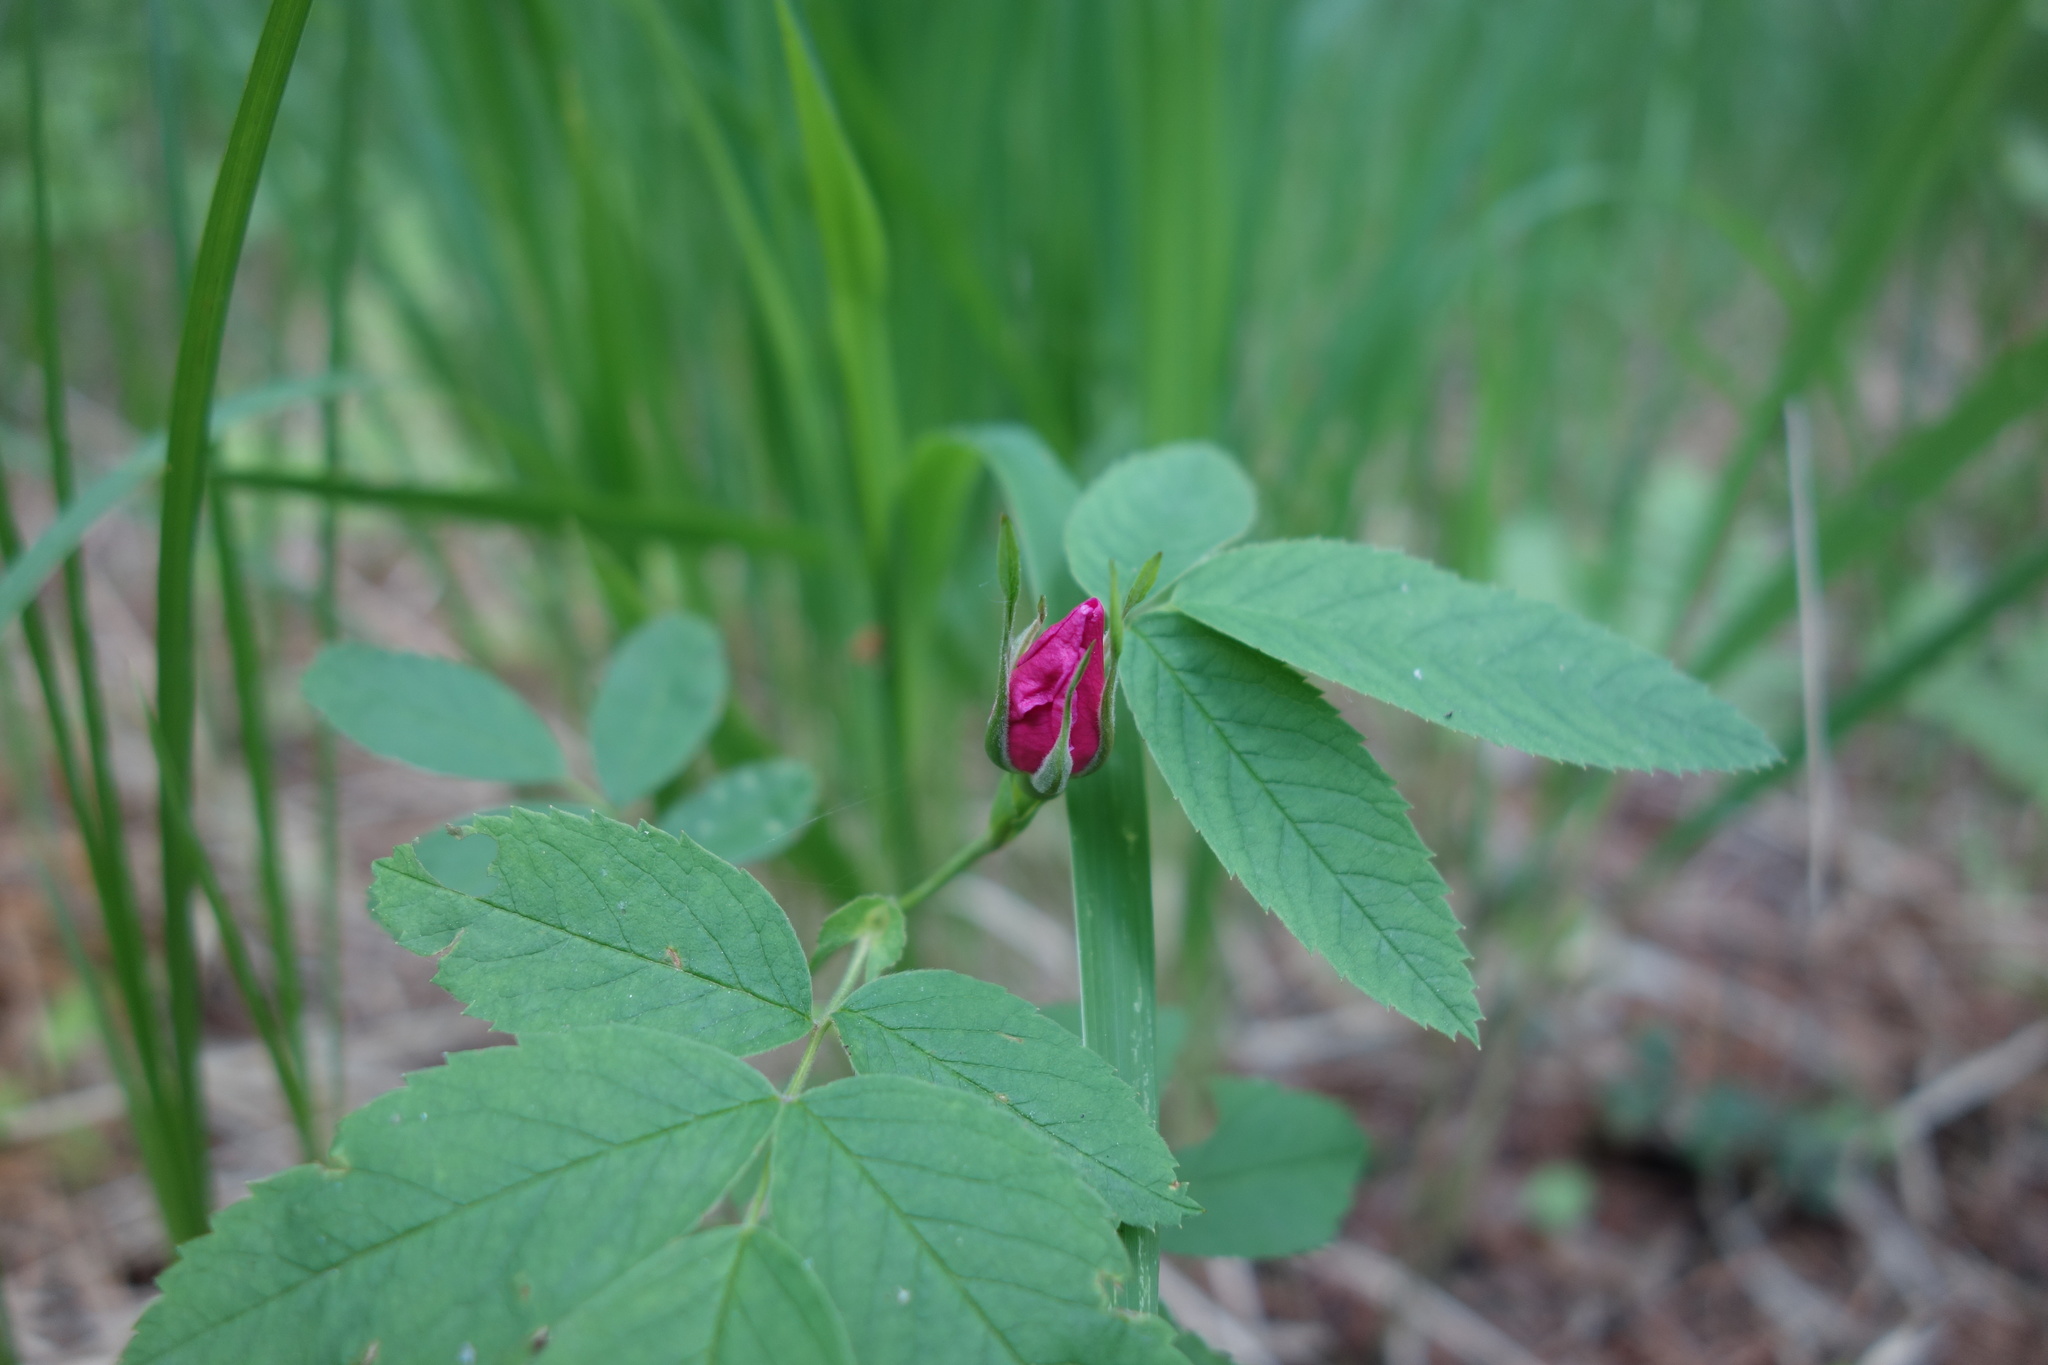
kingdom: Plantae
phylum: Tracheophyta
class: Magnoliopsida
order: Rosales
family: Rosaceae
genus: Rosa
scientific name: Rosa majalis
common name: Cinnamon rose
